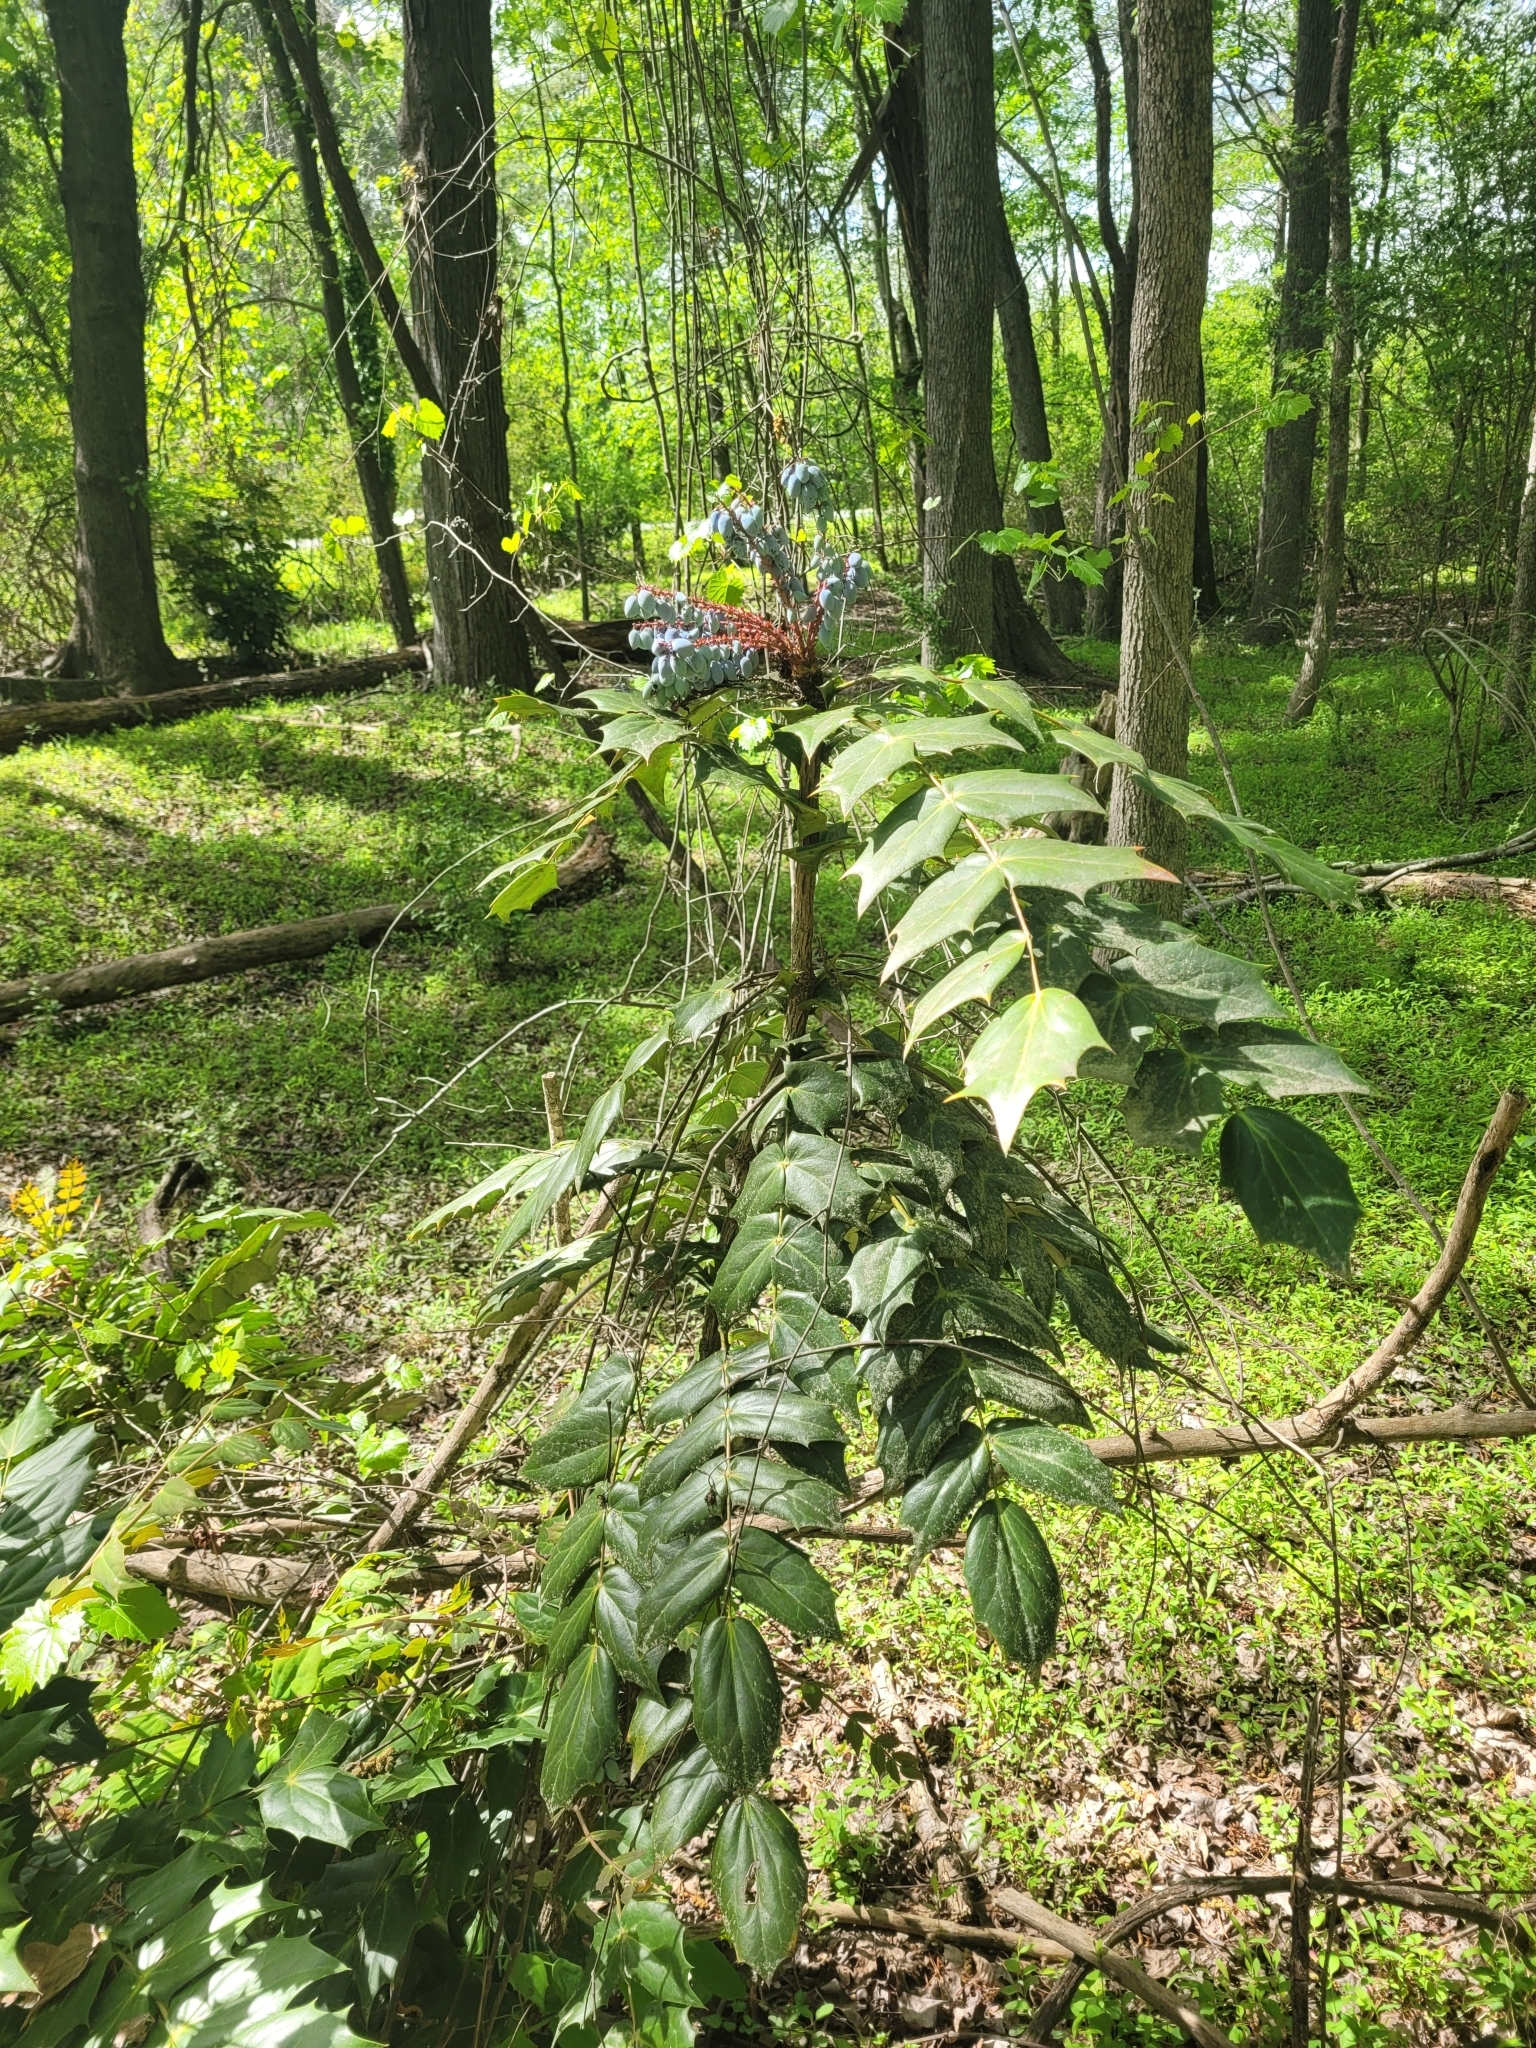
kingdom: Plantae
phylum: Tracheophyta
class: Magnoliopsida
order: Ranunculales
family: Berberidaceae
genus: Mahonia
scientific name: Mahonia bealei
